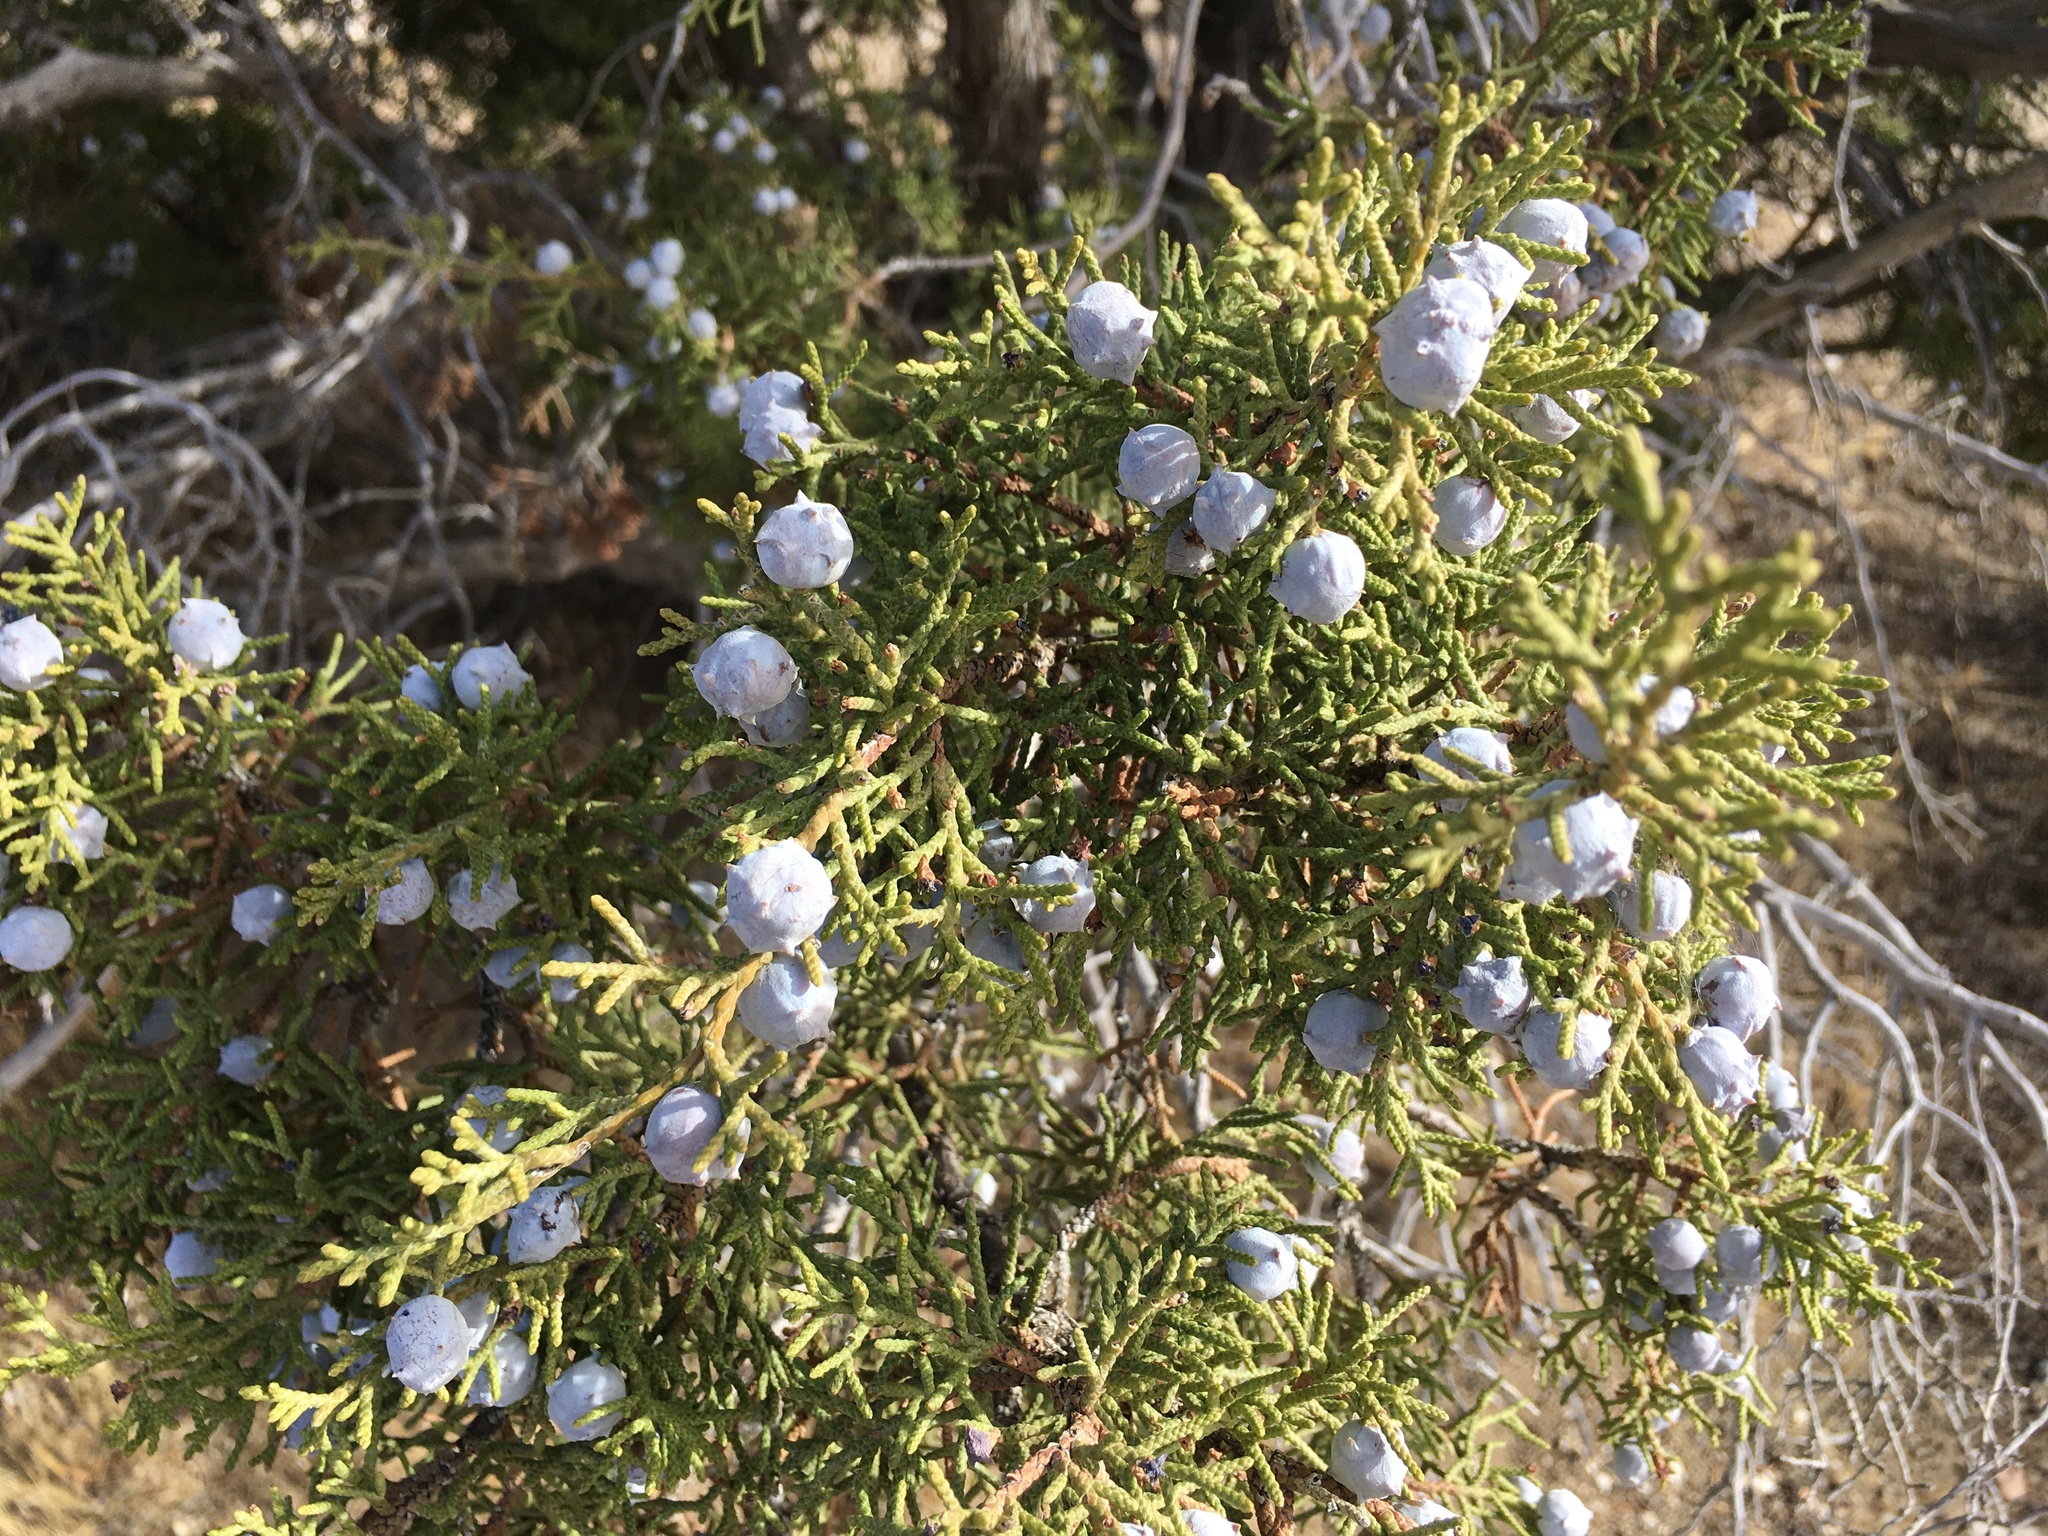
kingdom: Plantae
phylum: Tracheophyta
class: Pinopsida
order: Pinales
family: Cupressaceae
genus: Juniperus
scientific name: Juniperus californica
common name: California juniper
